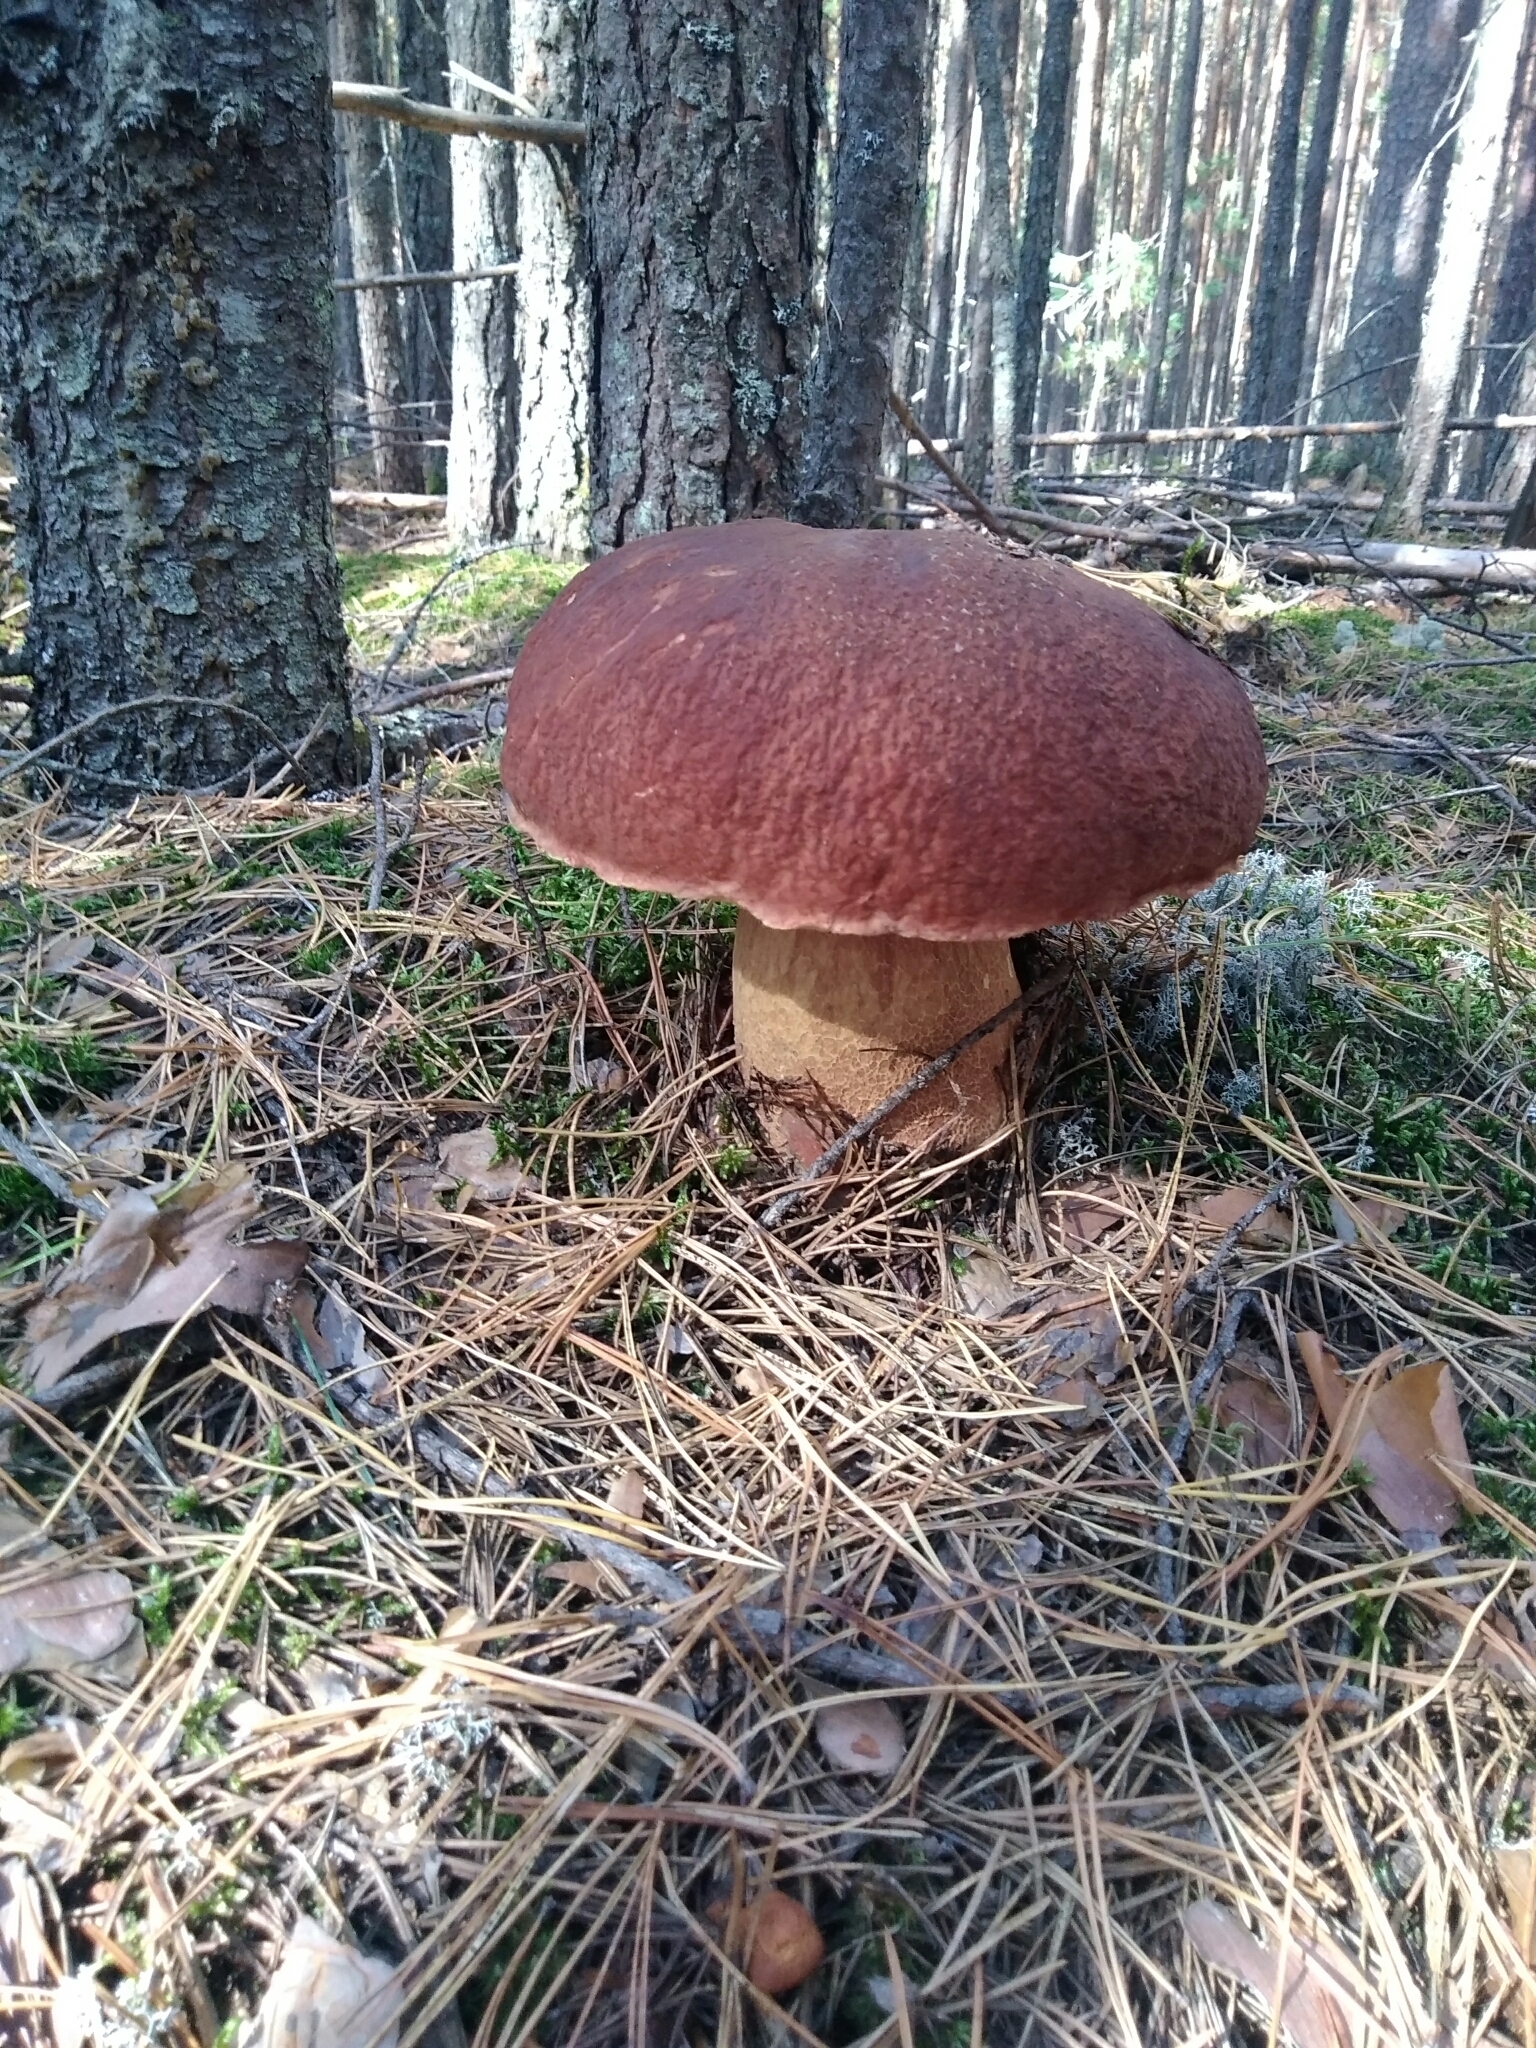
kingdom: Fungi
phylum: Basidiomycota
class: Agaricomycetes
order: Boletales
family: Boletaceae
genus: Boletus
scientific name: Boletus pinophilus
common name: Pine bolete
